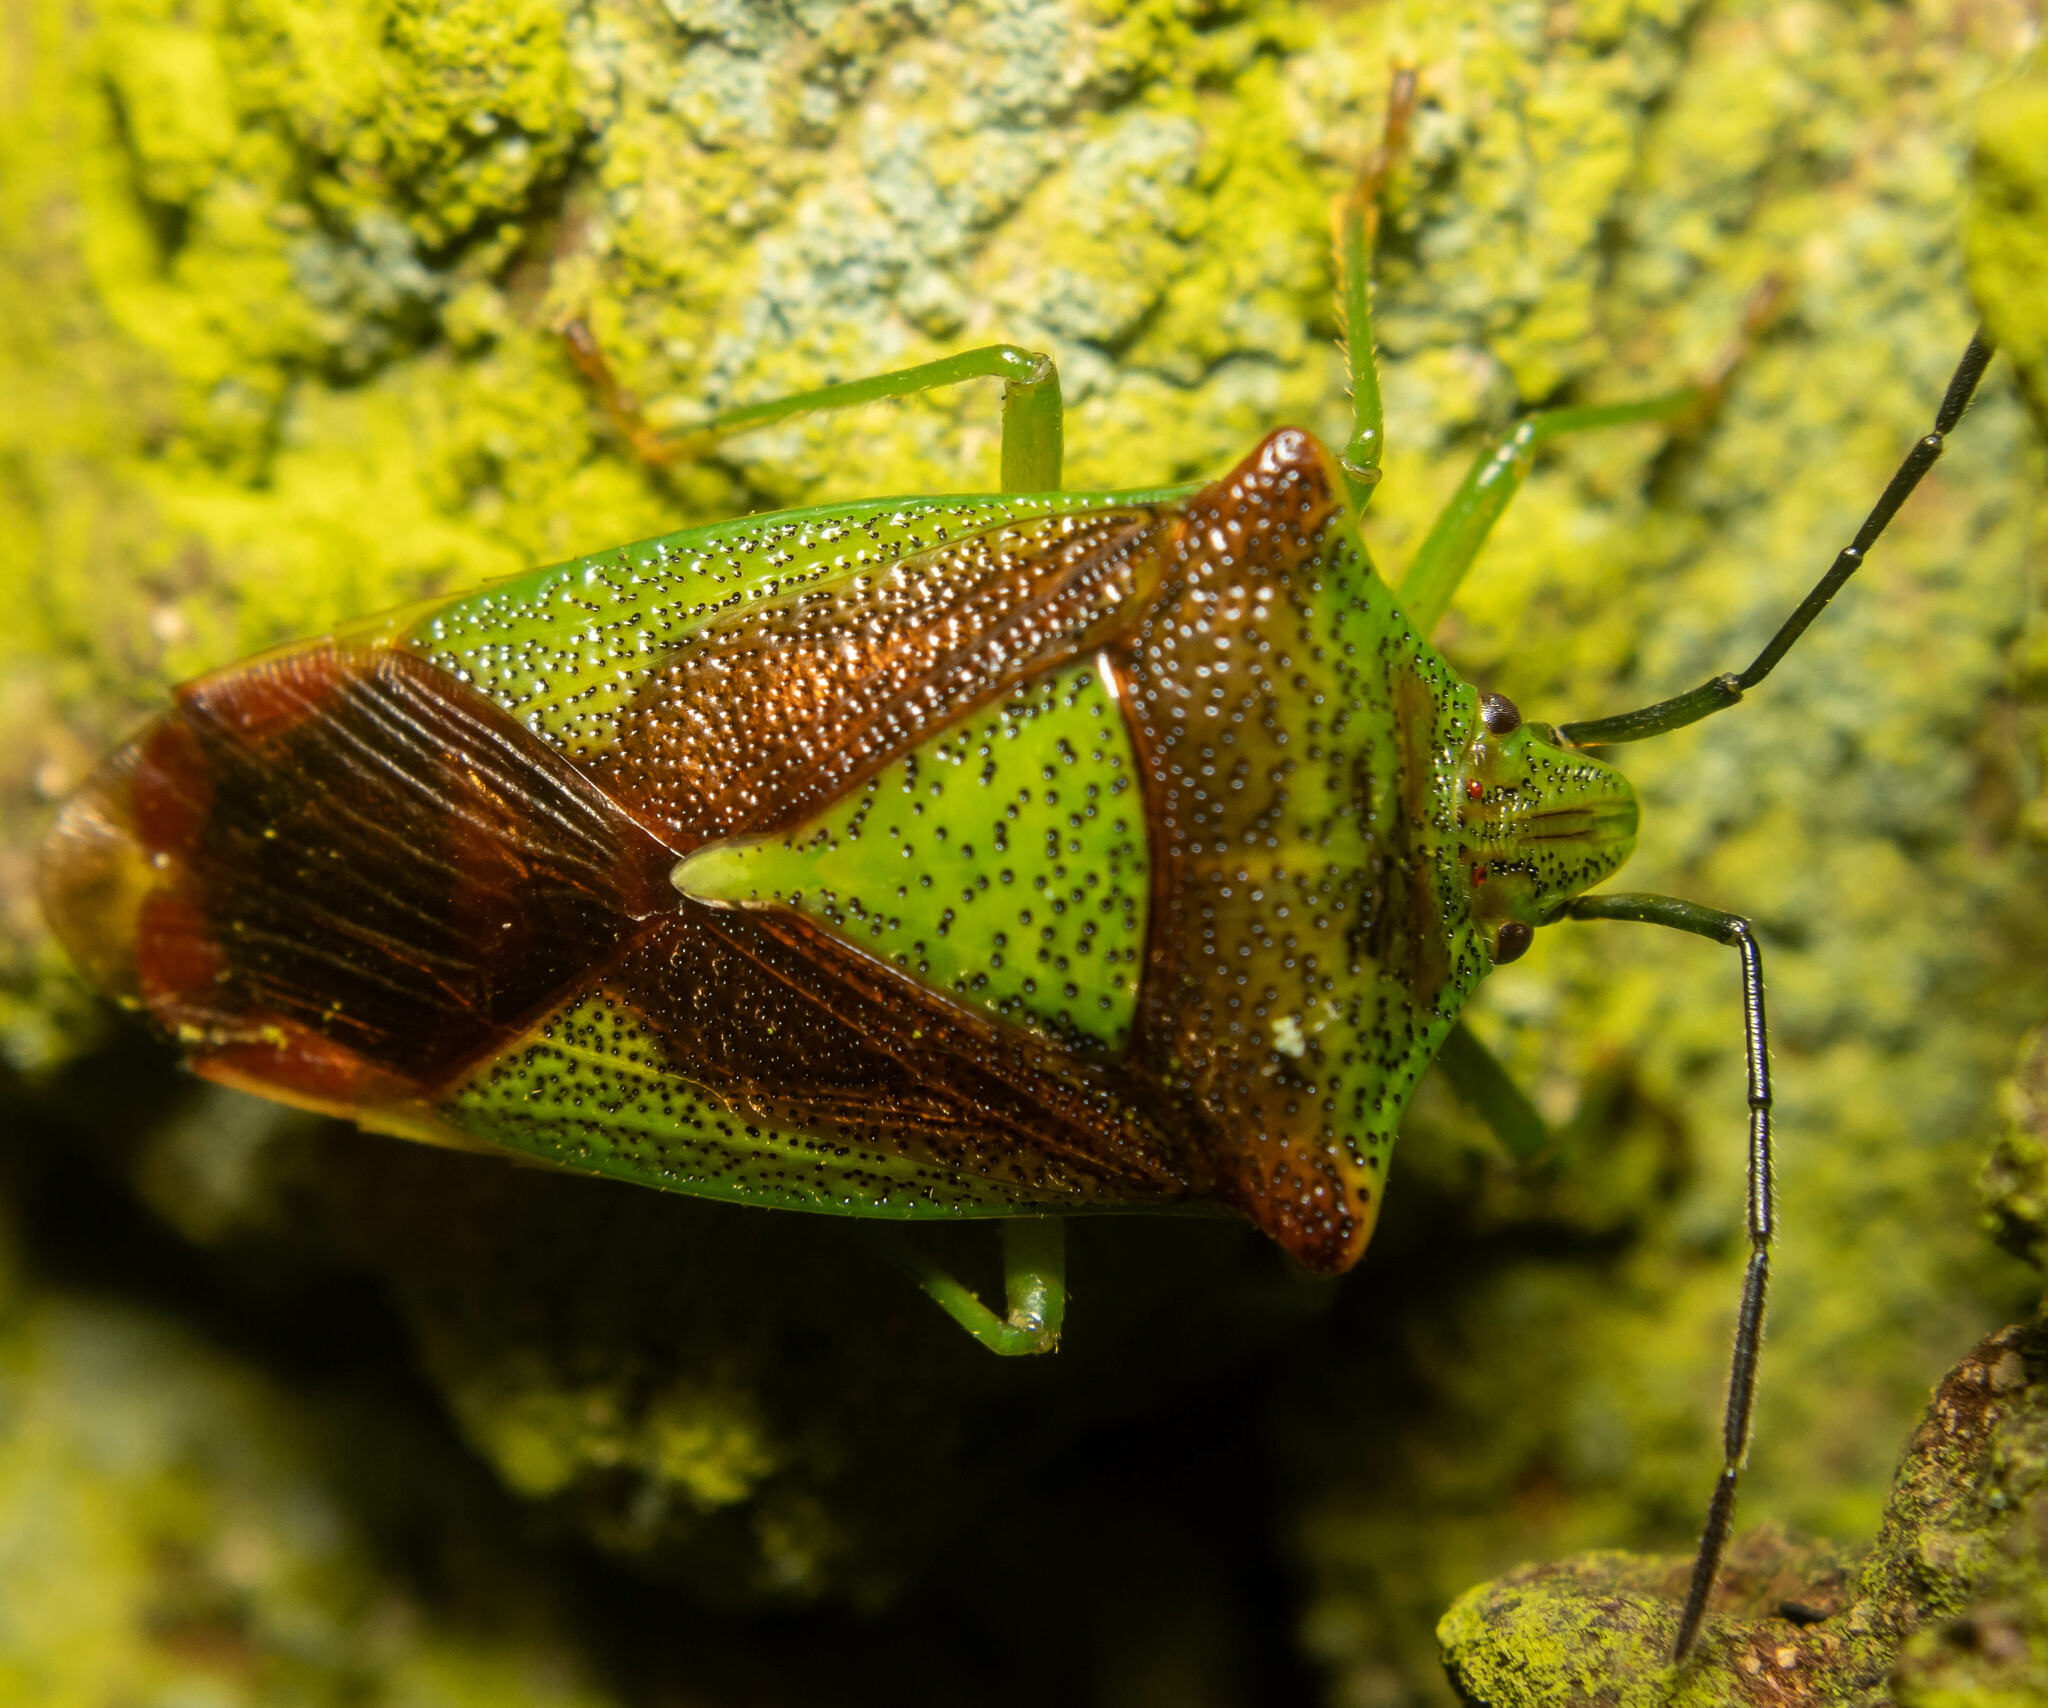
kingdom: Animalia
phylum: Arthropoda
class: Insecta
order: Hemiptera
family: Acanthosomatidae
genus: Acanthosoma
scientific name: Acanthosoma haemorrhoidale
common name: Hawthorn shieldbug
